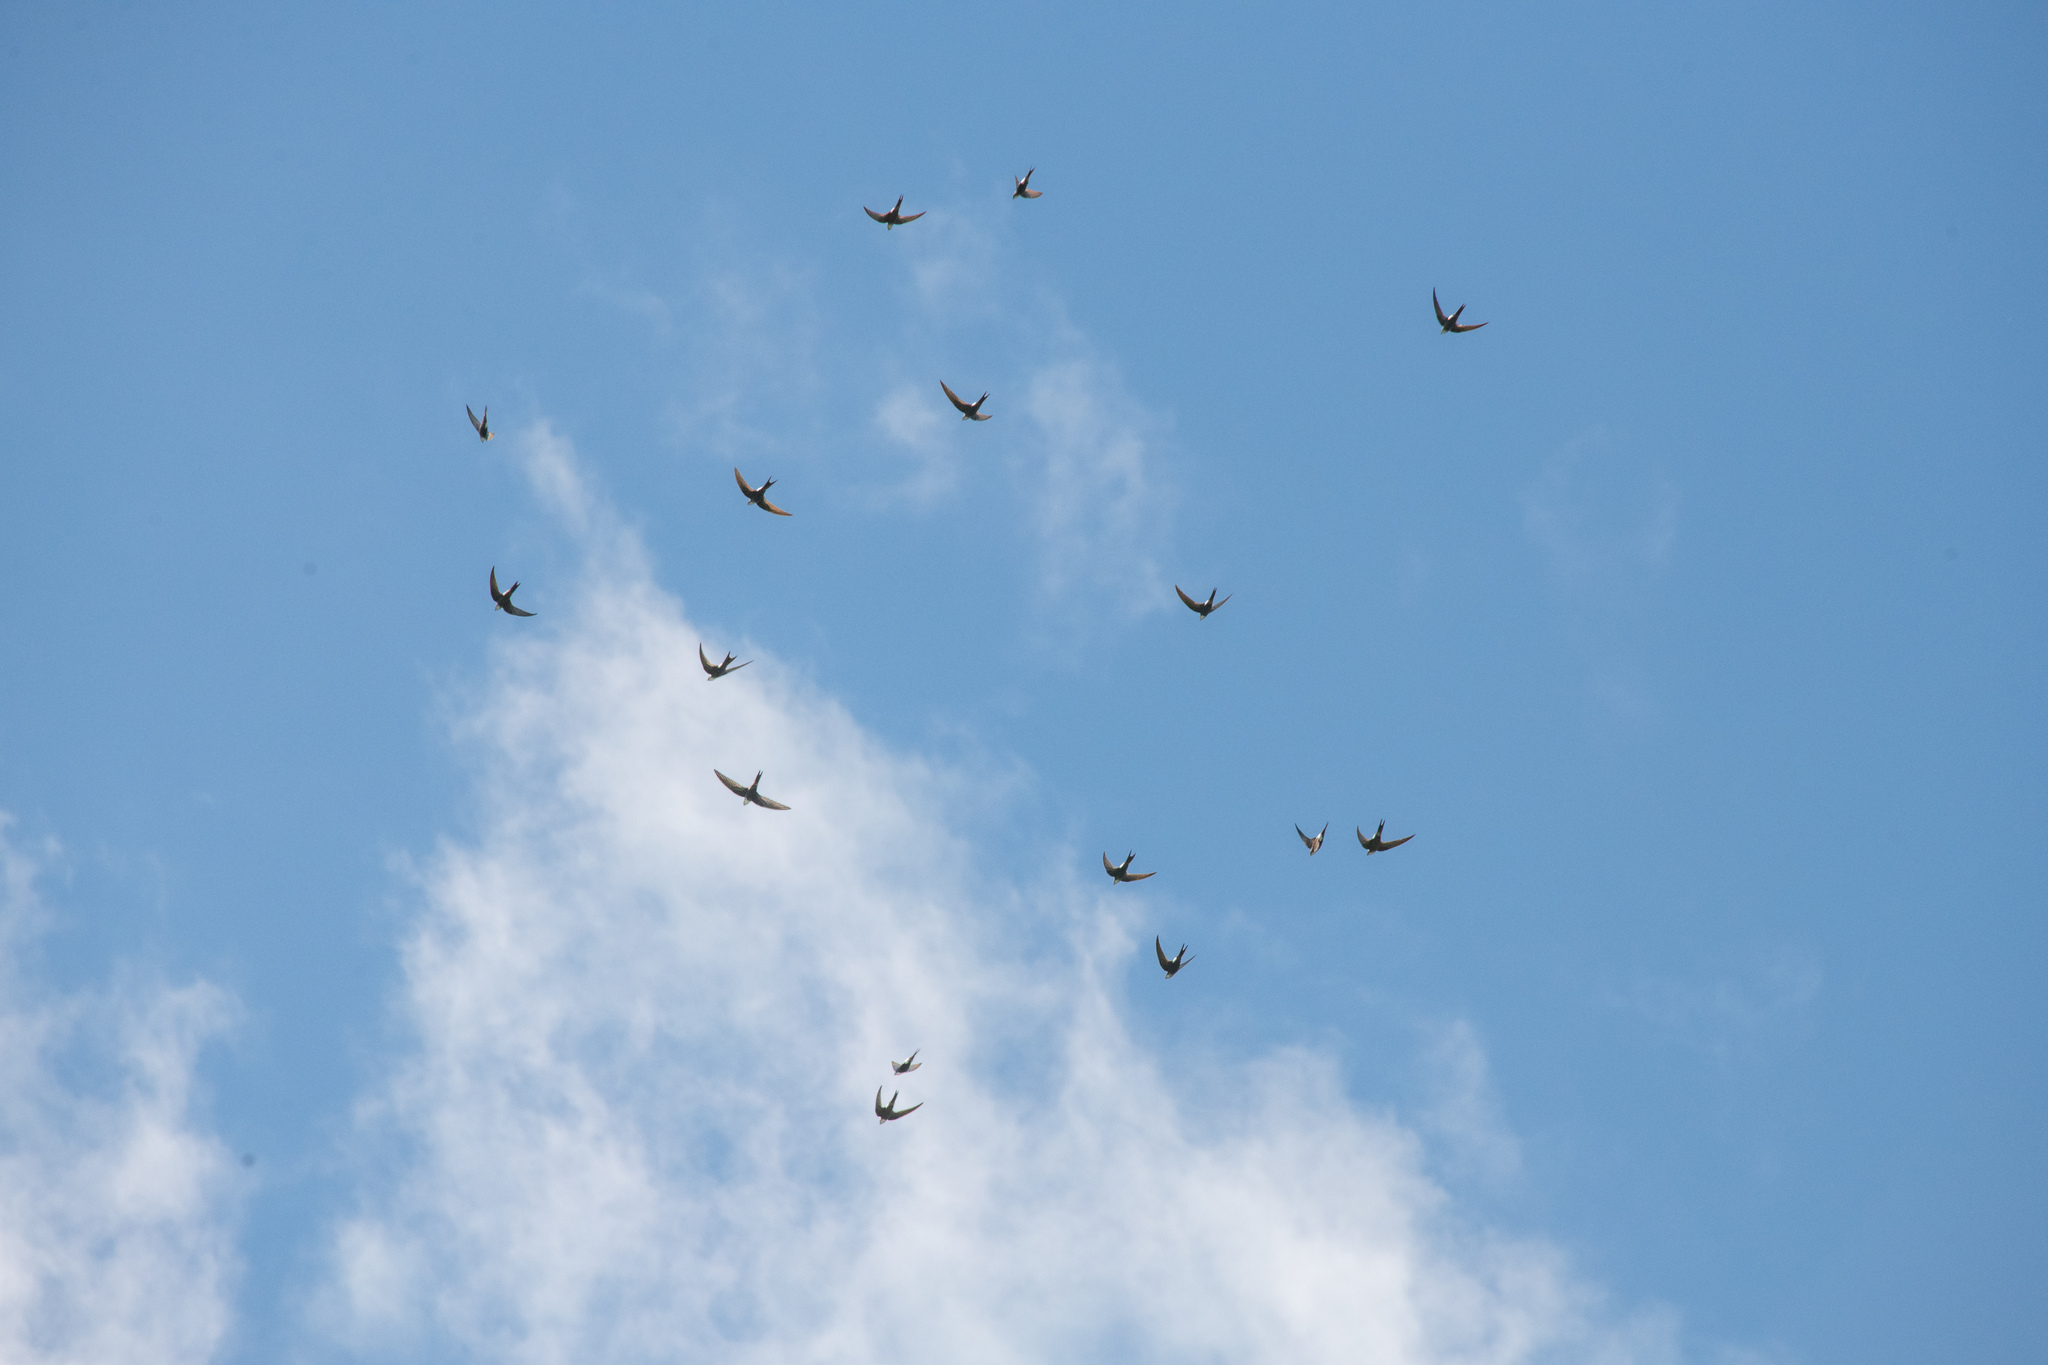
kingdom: Animalia
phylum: Chordata
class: Aves
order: Apodiformes
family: Apodidae
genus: Apus
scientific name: Apus pacificus
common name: Pacific swift
